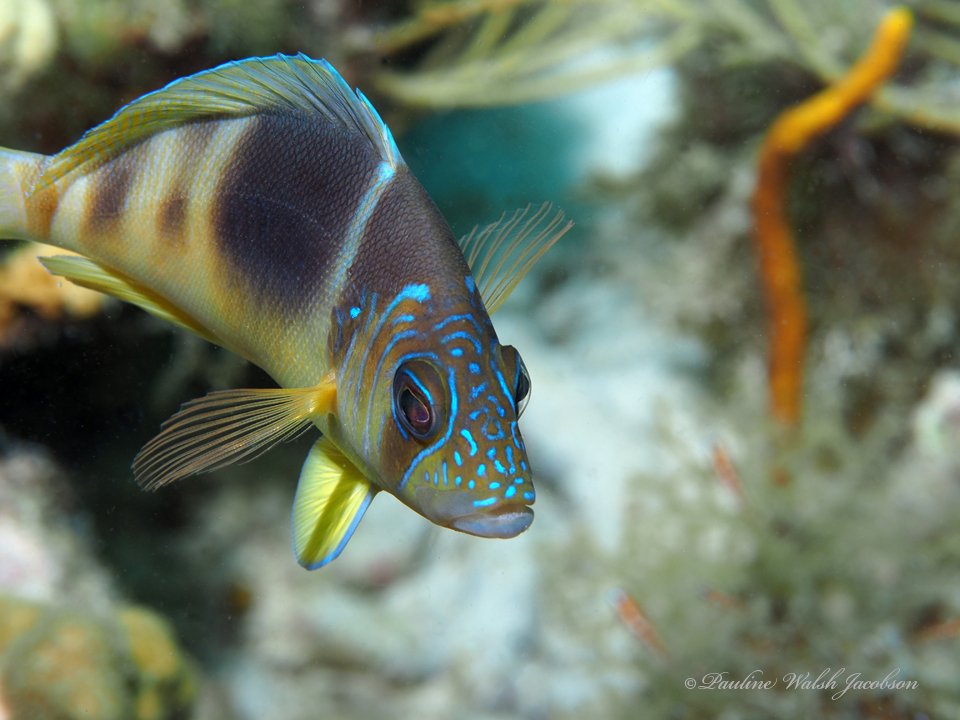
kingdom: Animalia
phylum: Chordata
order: Perciformes
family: Serranidae
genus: Hypoplectrus
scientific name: Hypoplectrus puella
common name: Barred hamlet
